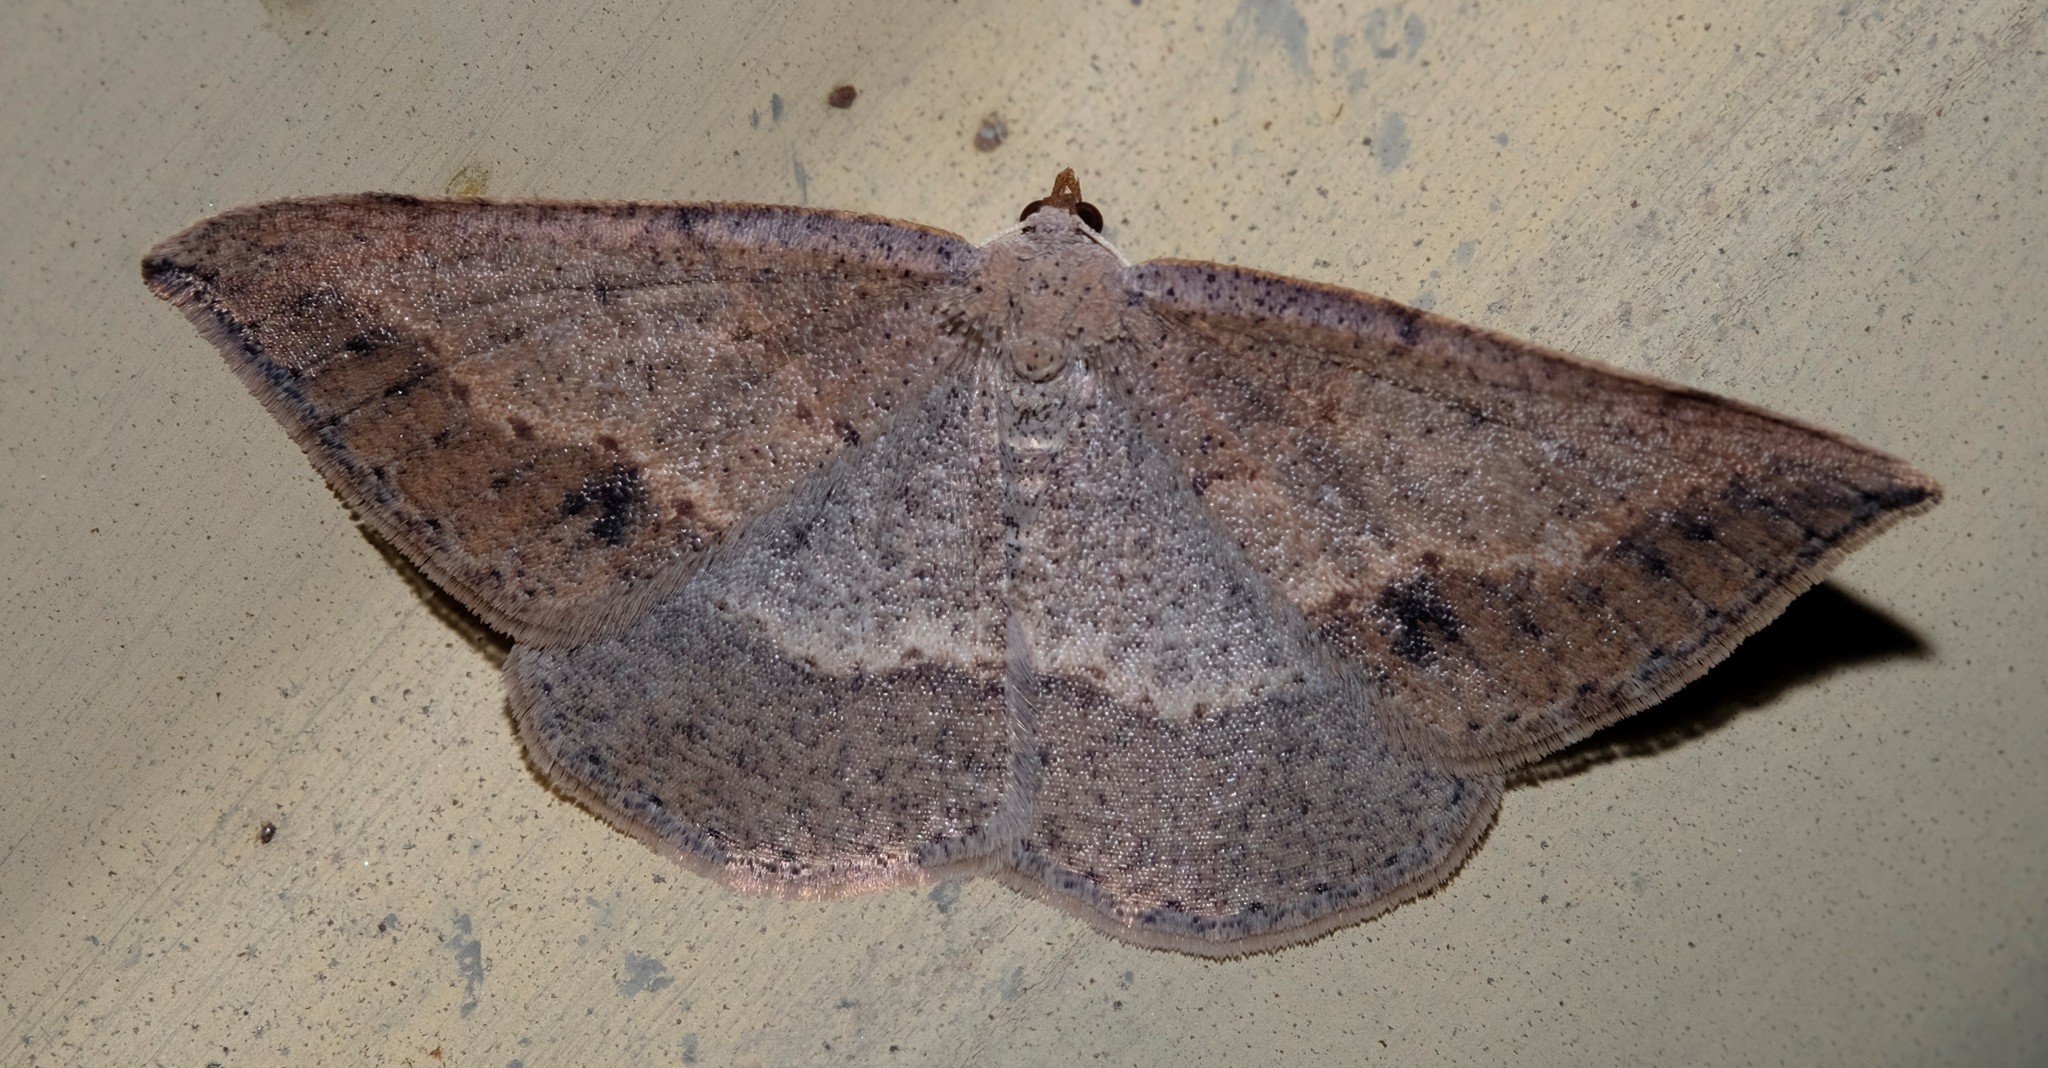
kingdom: Animalia
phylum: Arthropoda
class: Insecta
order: Lepidoptera
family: Geometridae
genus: Taxeotis
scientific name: Taxeotis perlinearia
